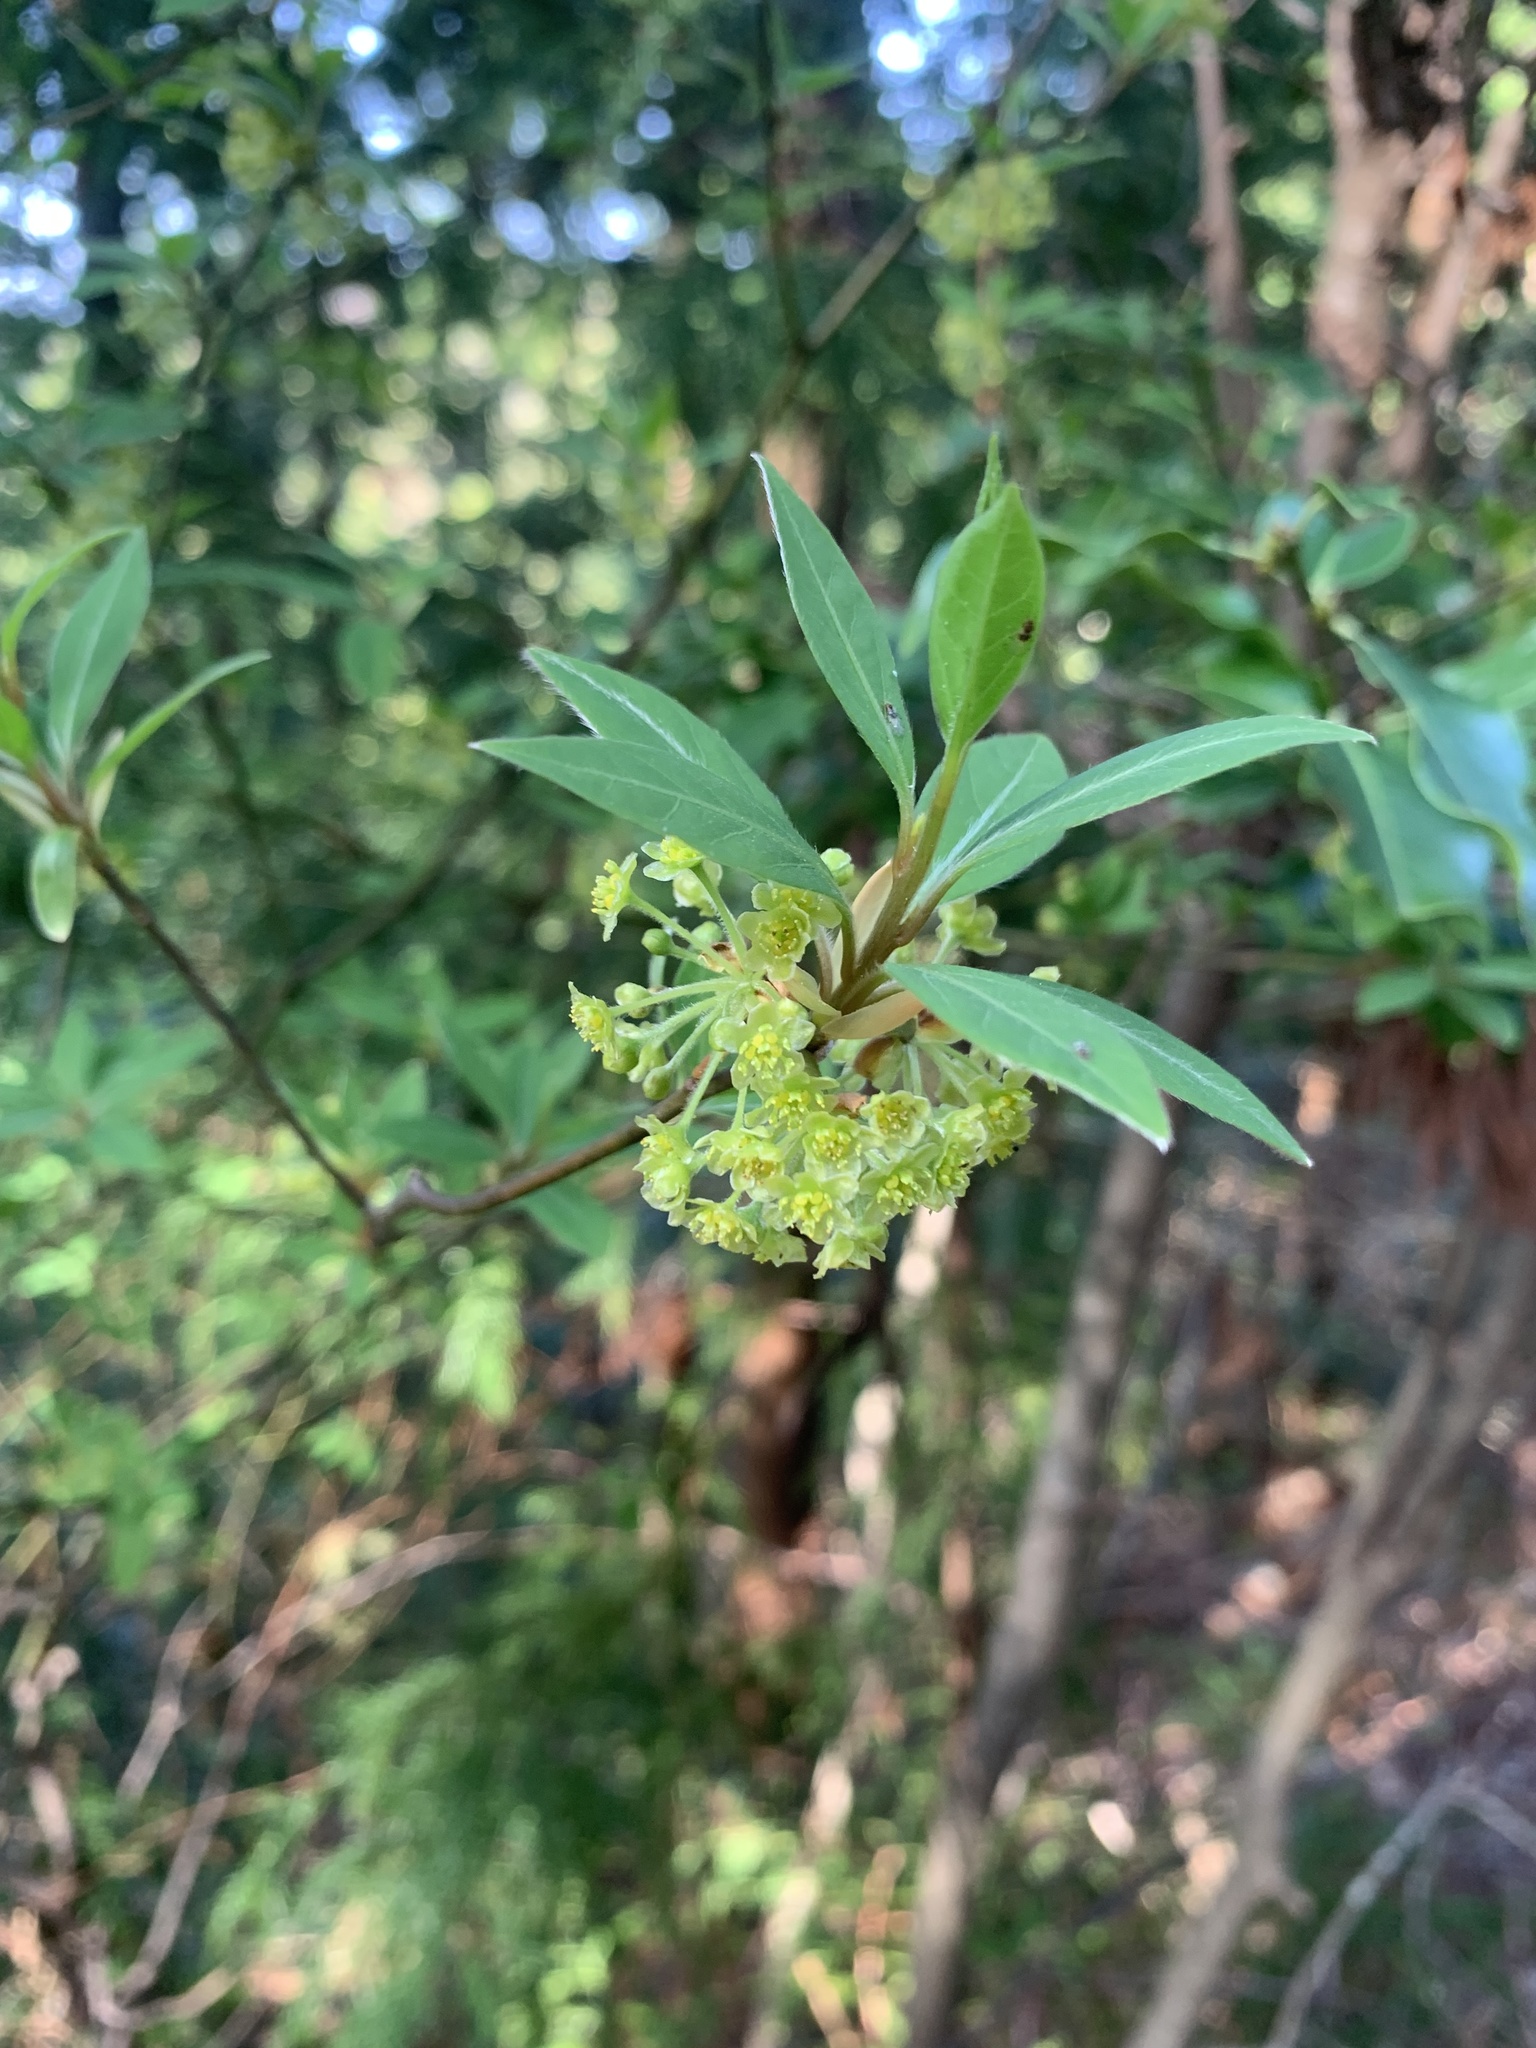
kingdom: Plantae
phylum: Tracheophyta
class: Magnoliopsida
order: Laurales
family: Lauraceae
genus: Lindera
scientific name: Lindera umbellata
